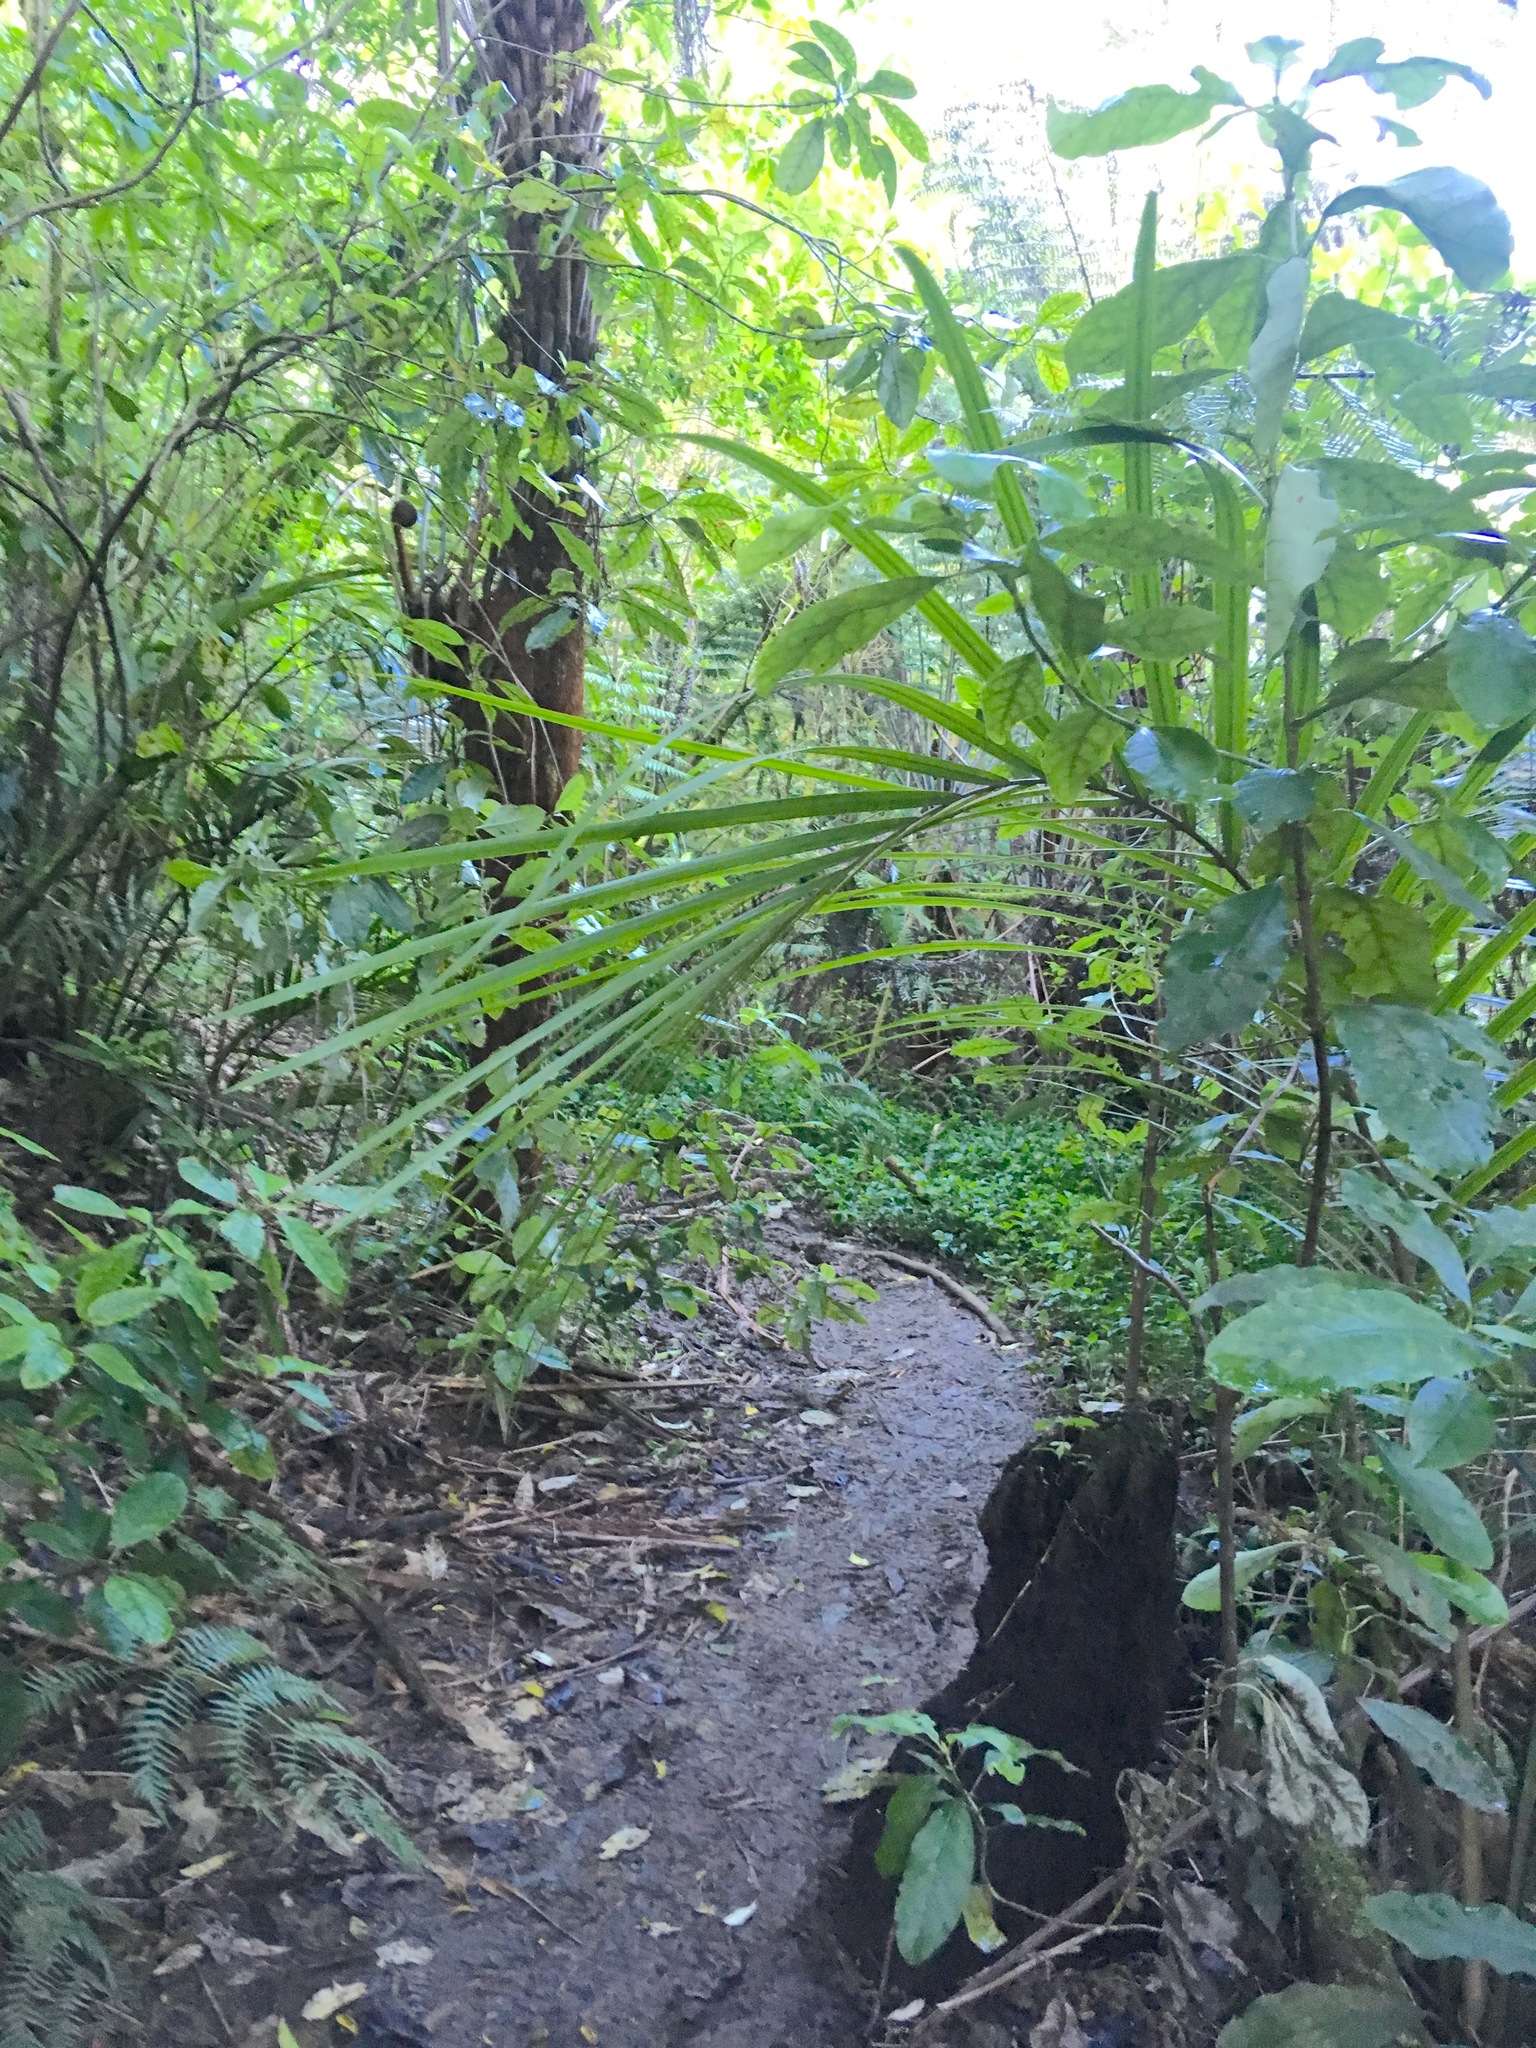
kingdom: Plantae
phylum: Tracheophyta
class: Magnoliopsida
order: Gentianales
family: Rubiaceae
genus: Coprosma
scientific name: Coprosma autumnalis
